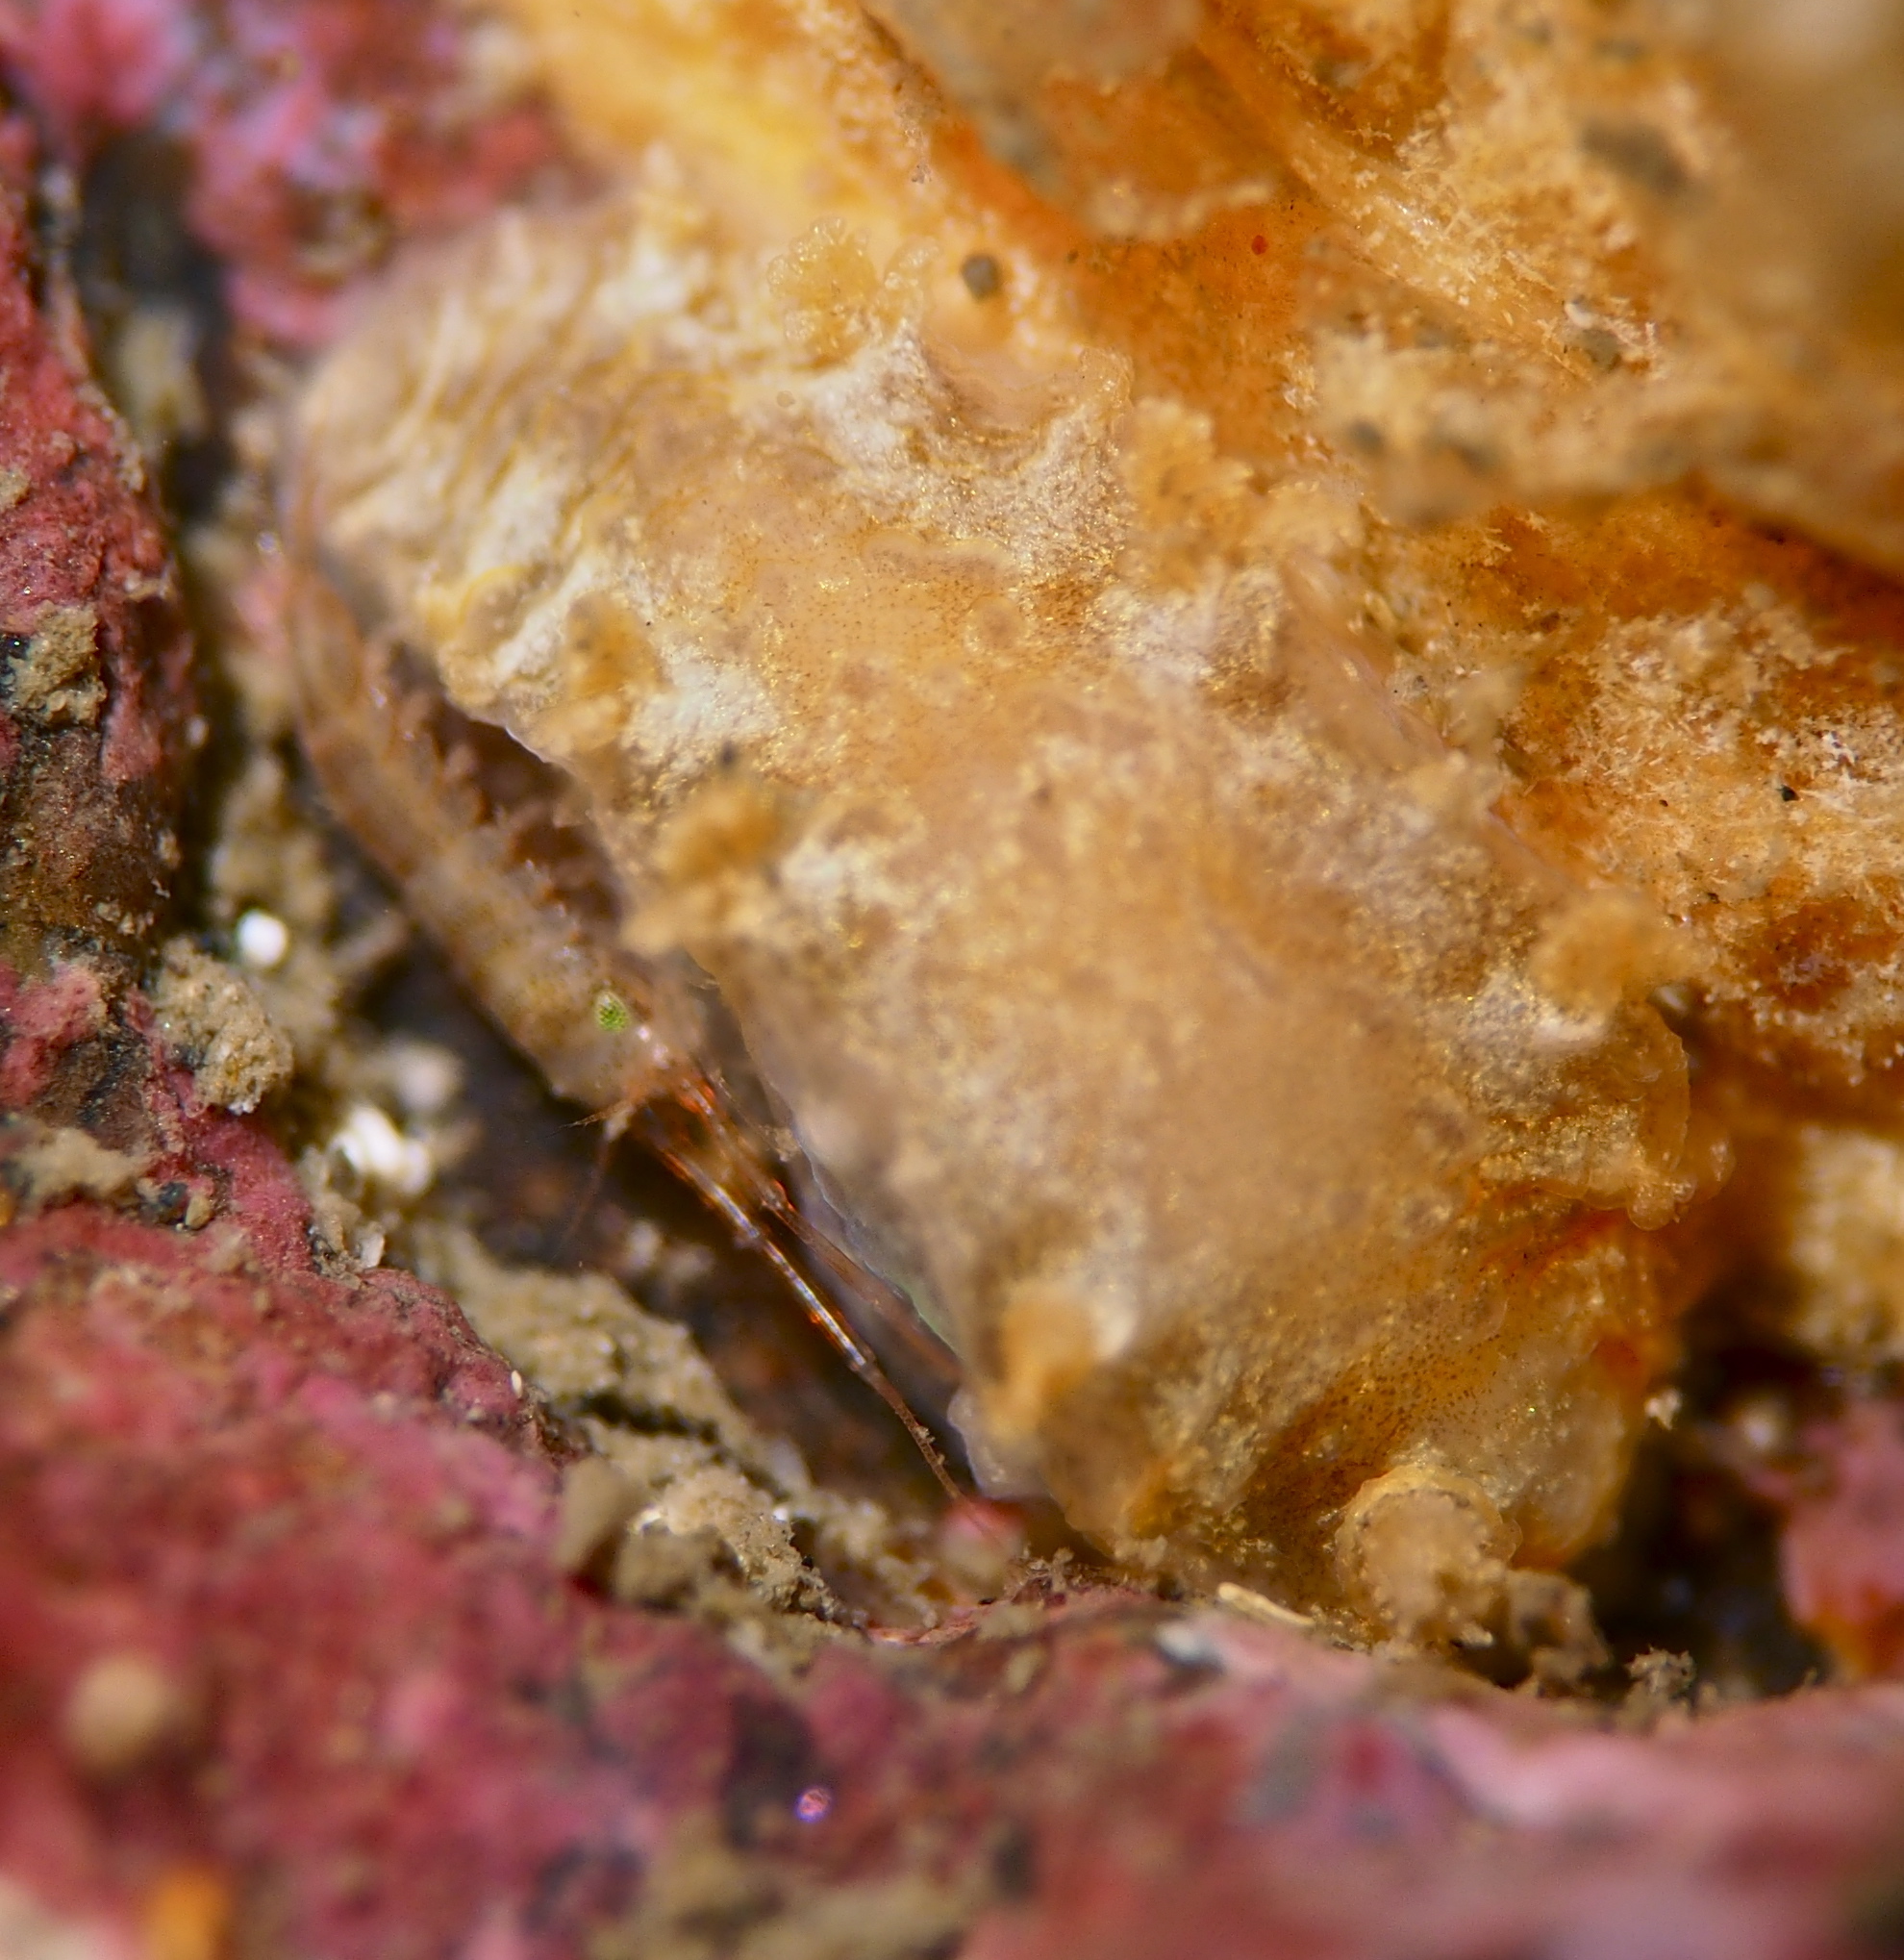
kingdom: Animalia
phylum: Mollusca
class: Gastropoda
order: Nudibranchia
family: Tritoniidae
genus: Duvaucelia
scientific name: Duvaucelia plebeia
